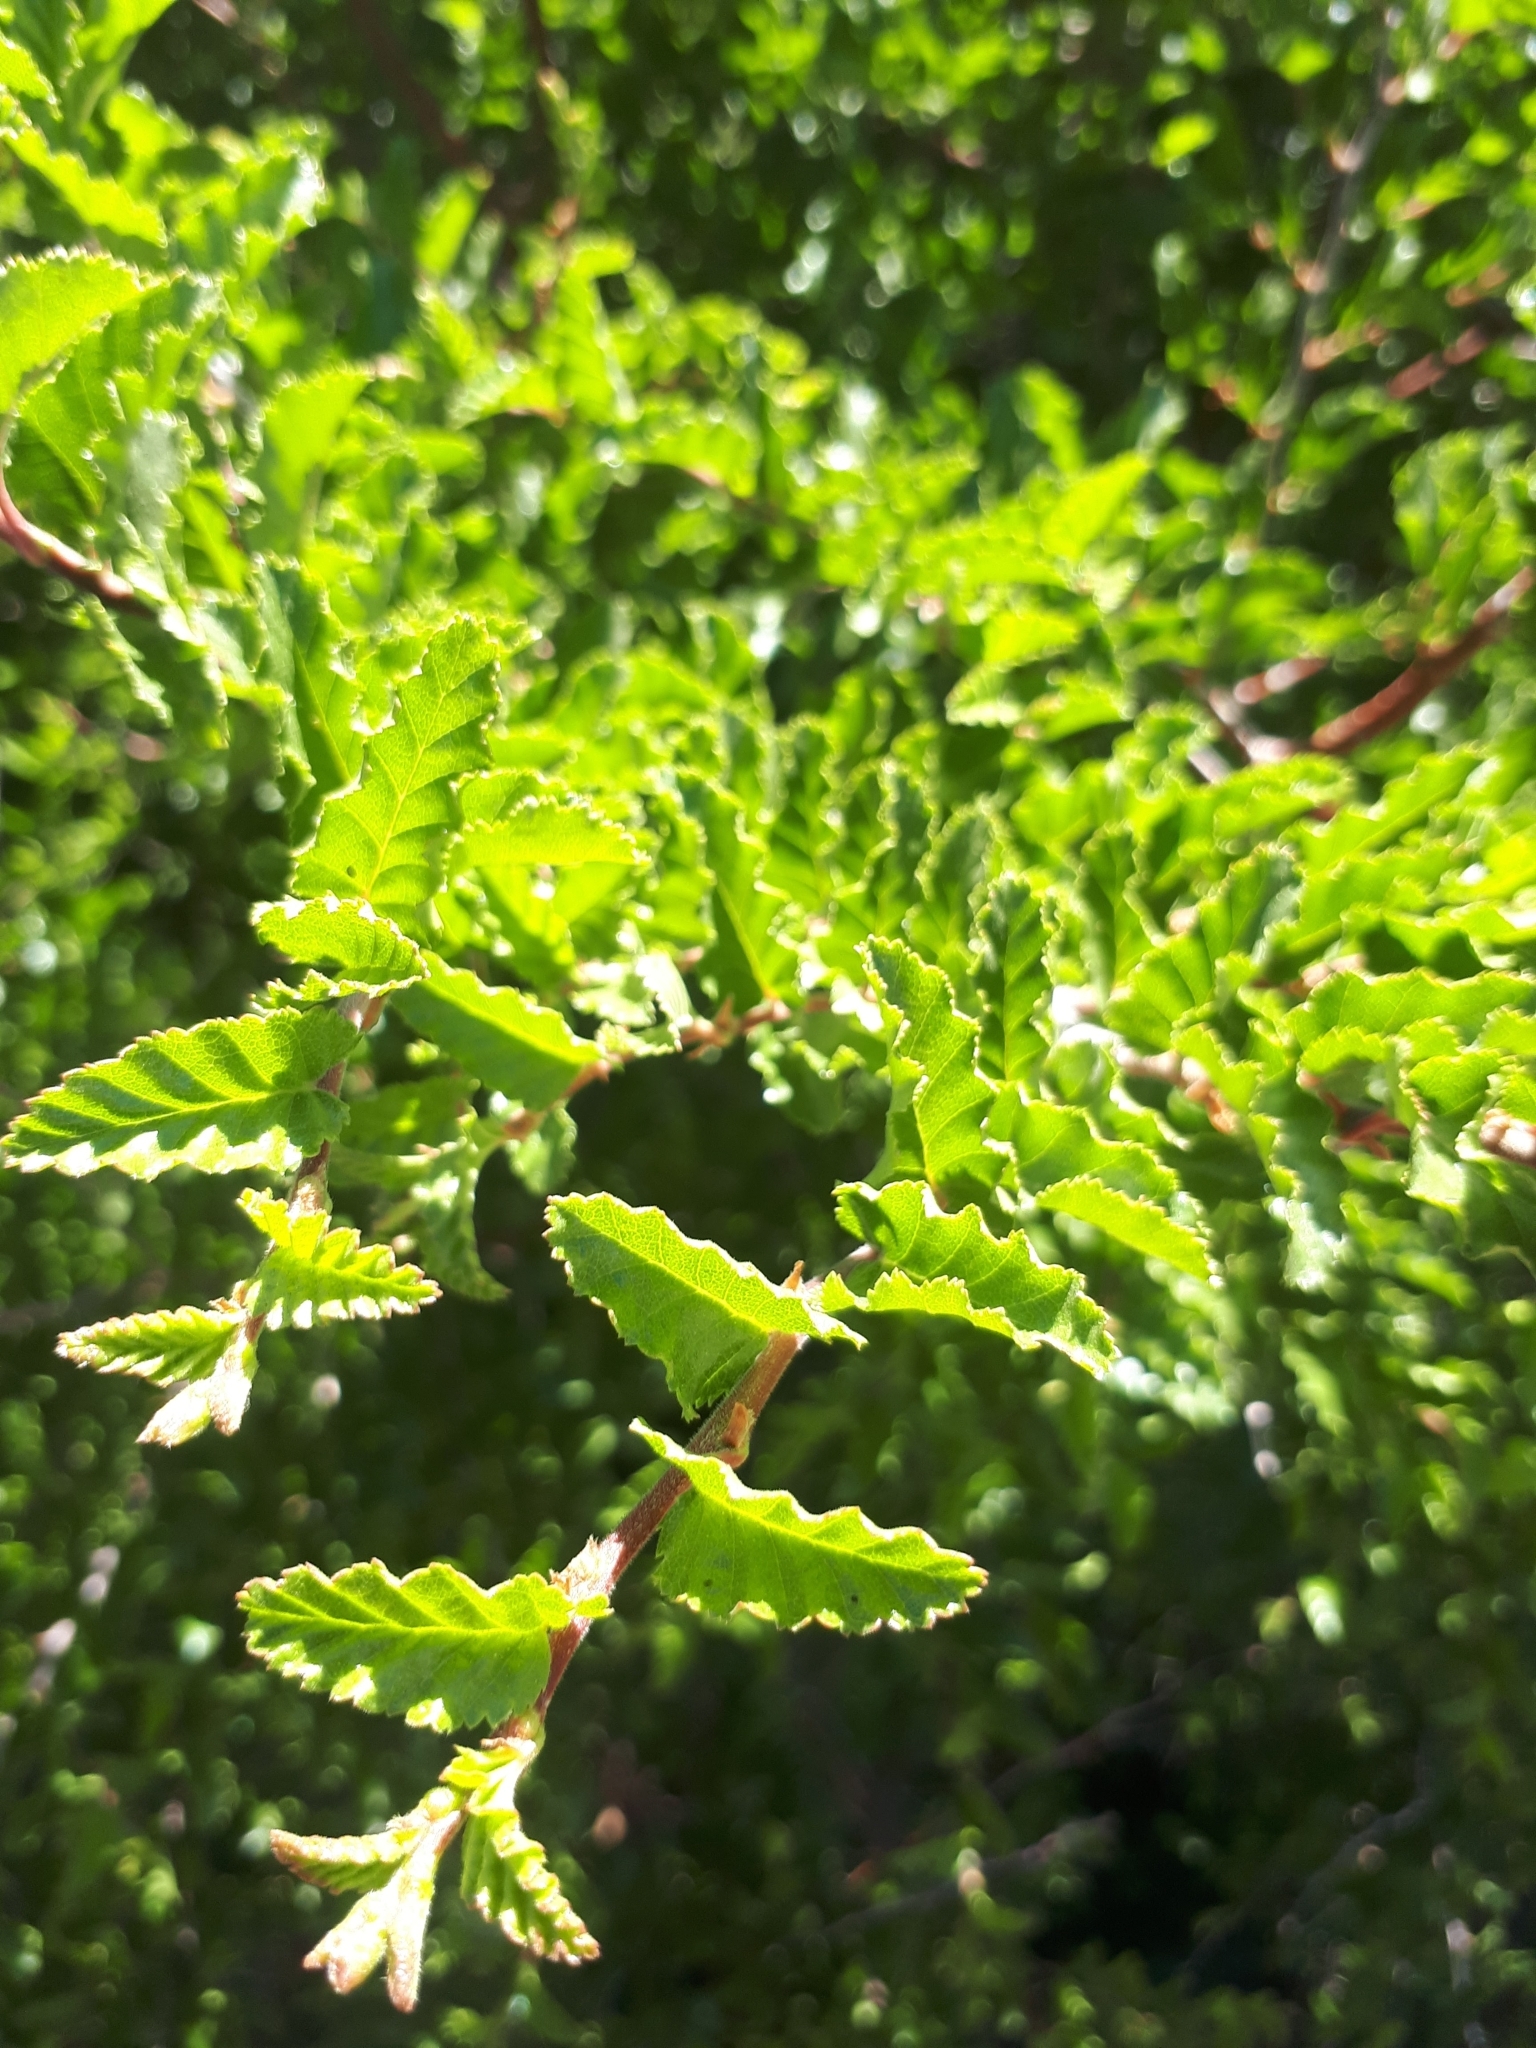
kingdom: Plantae
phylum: Tracheophyta
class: Magnoliopsida
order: Fagales
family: Nothofagaceae
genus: Nothofagus
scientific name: Nothofagus antarctica
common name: Antarctic beech
